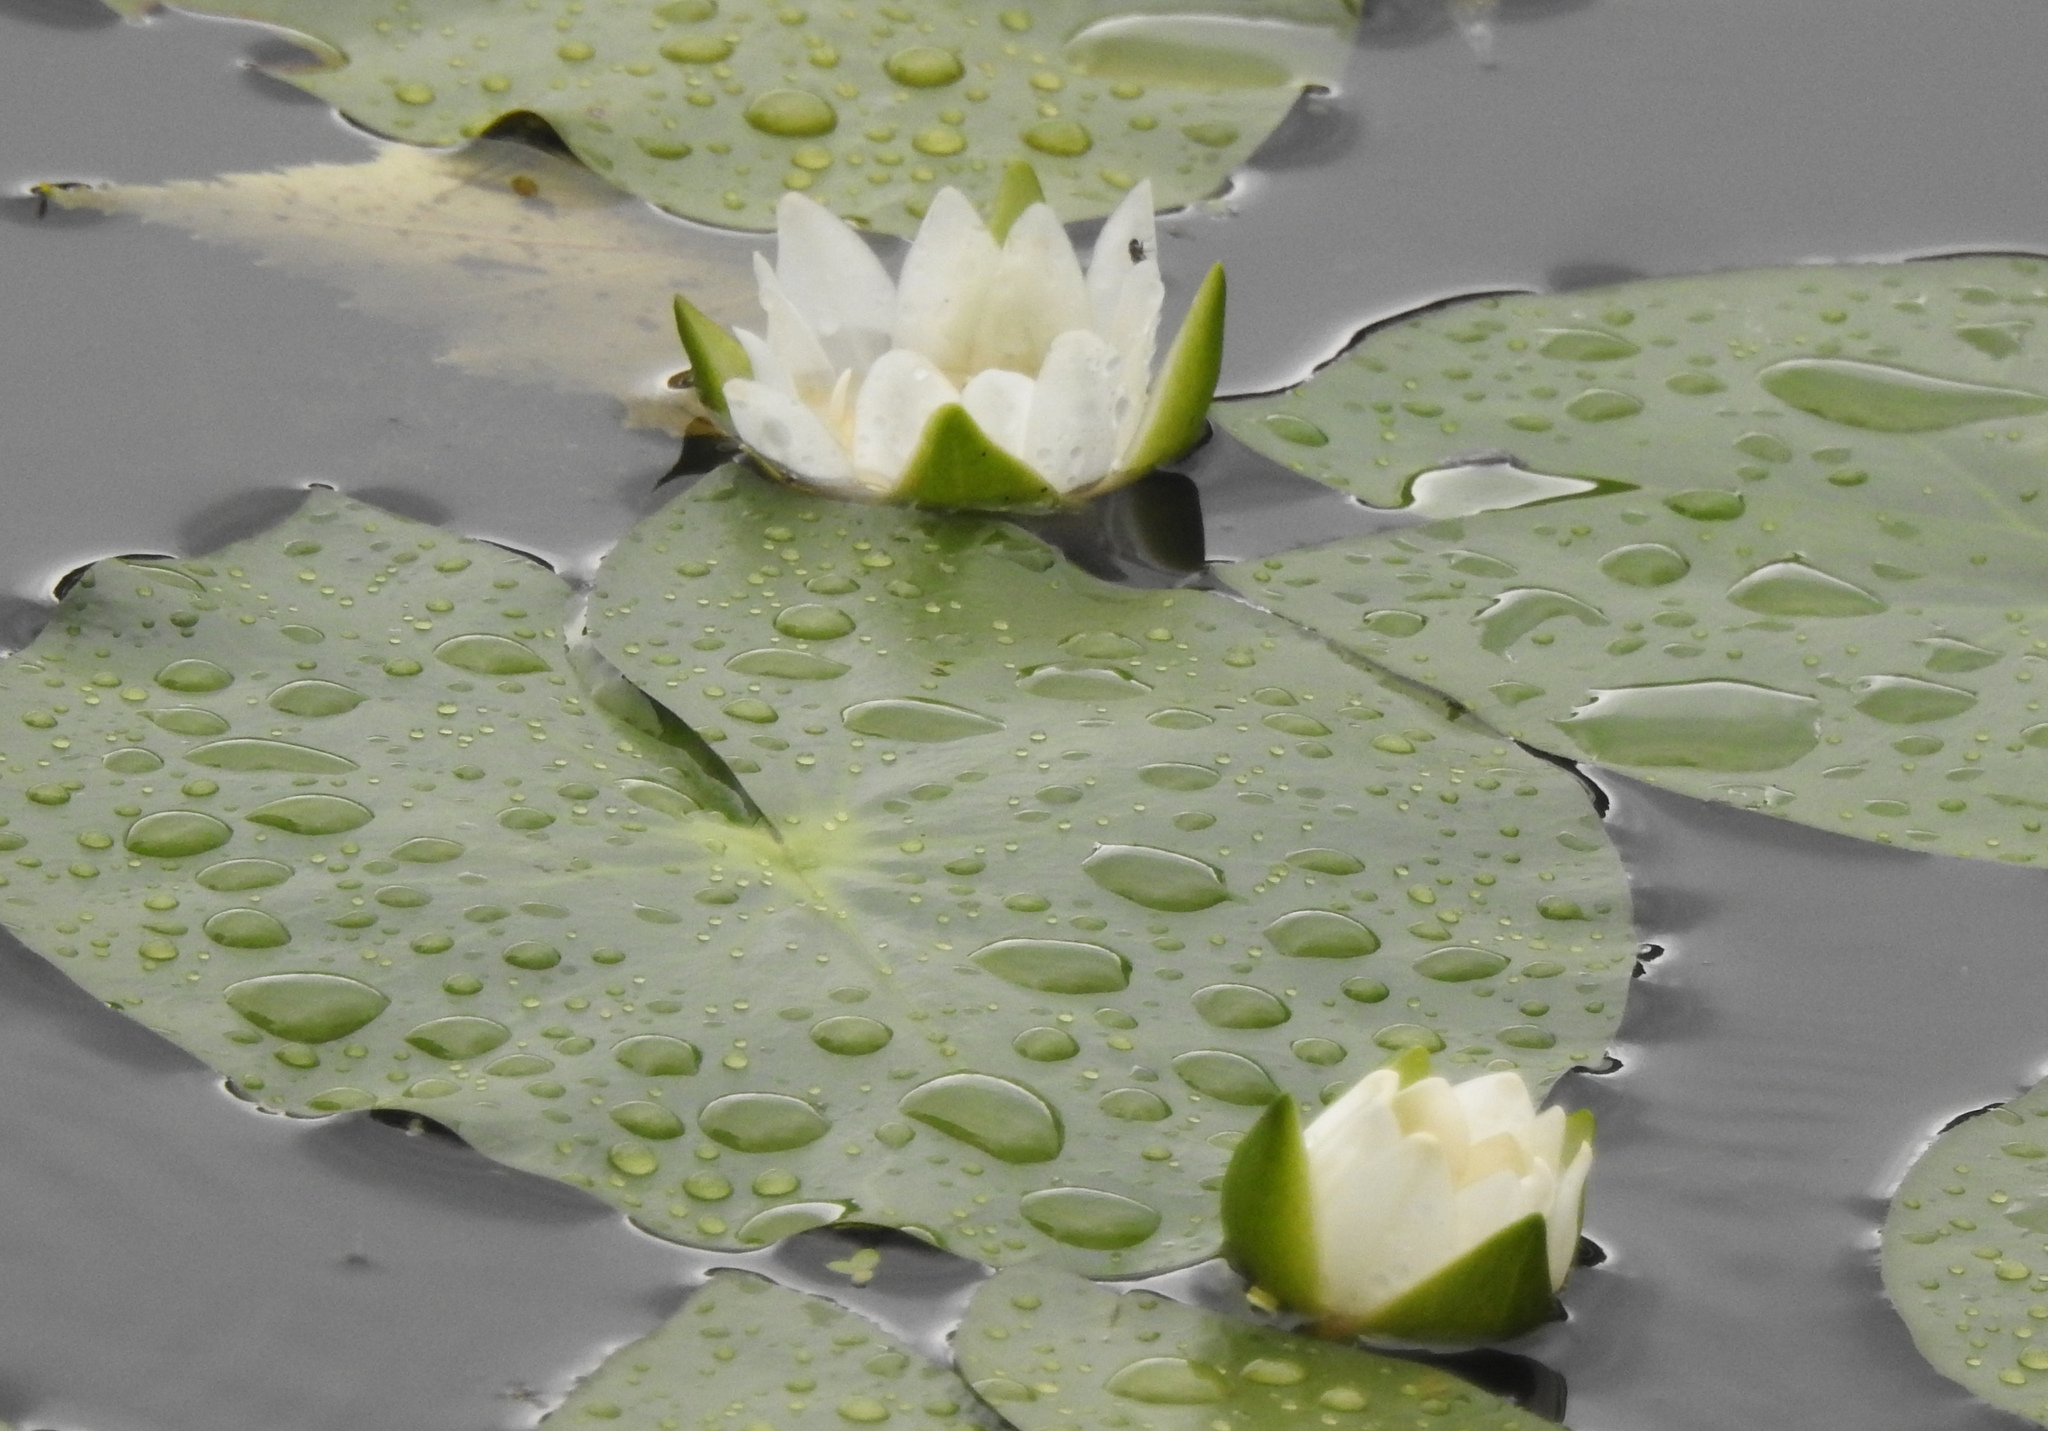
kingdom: Plantae
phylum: Tracheophyta
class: Magnoliopsida
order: Nymphaeales
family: Nymphaeaceae
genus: Nymphaea
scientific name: Nymphaea tetragona
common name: Pygmy water-lily
